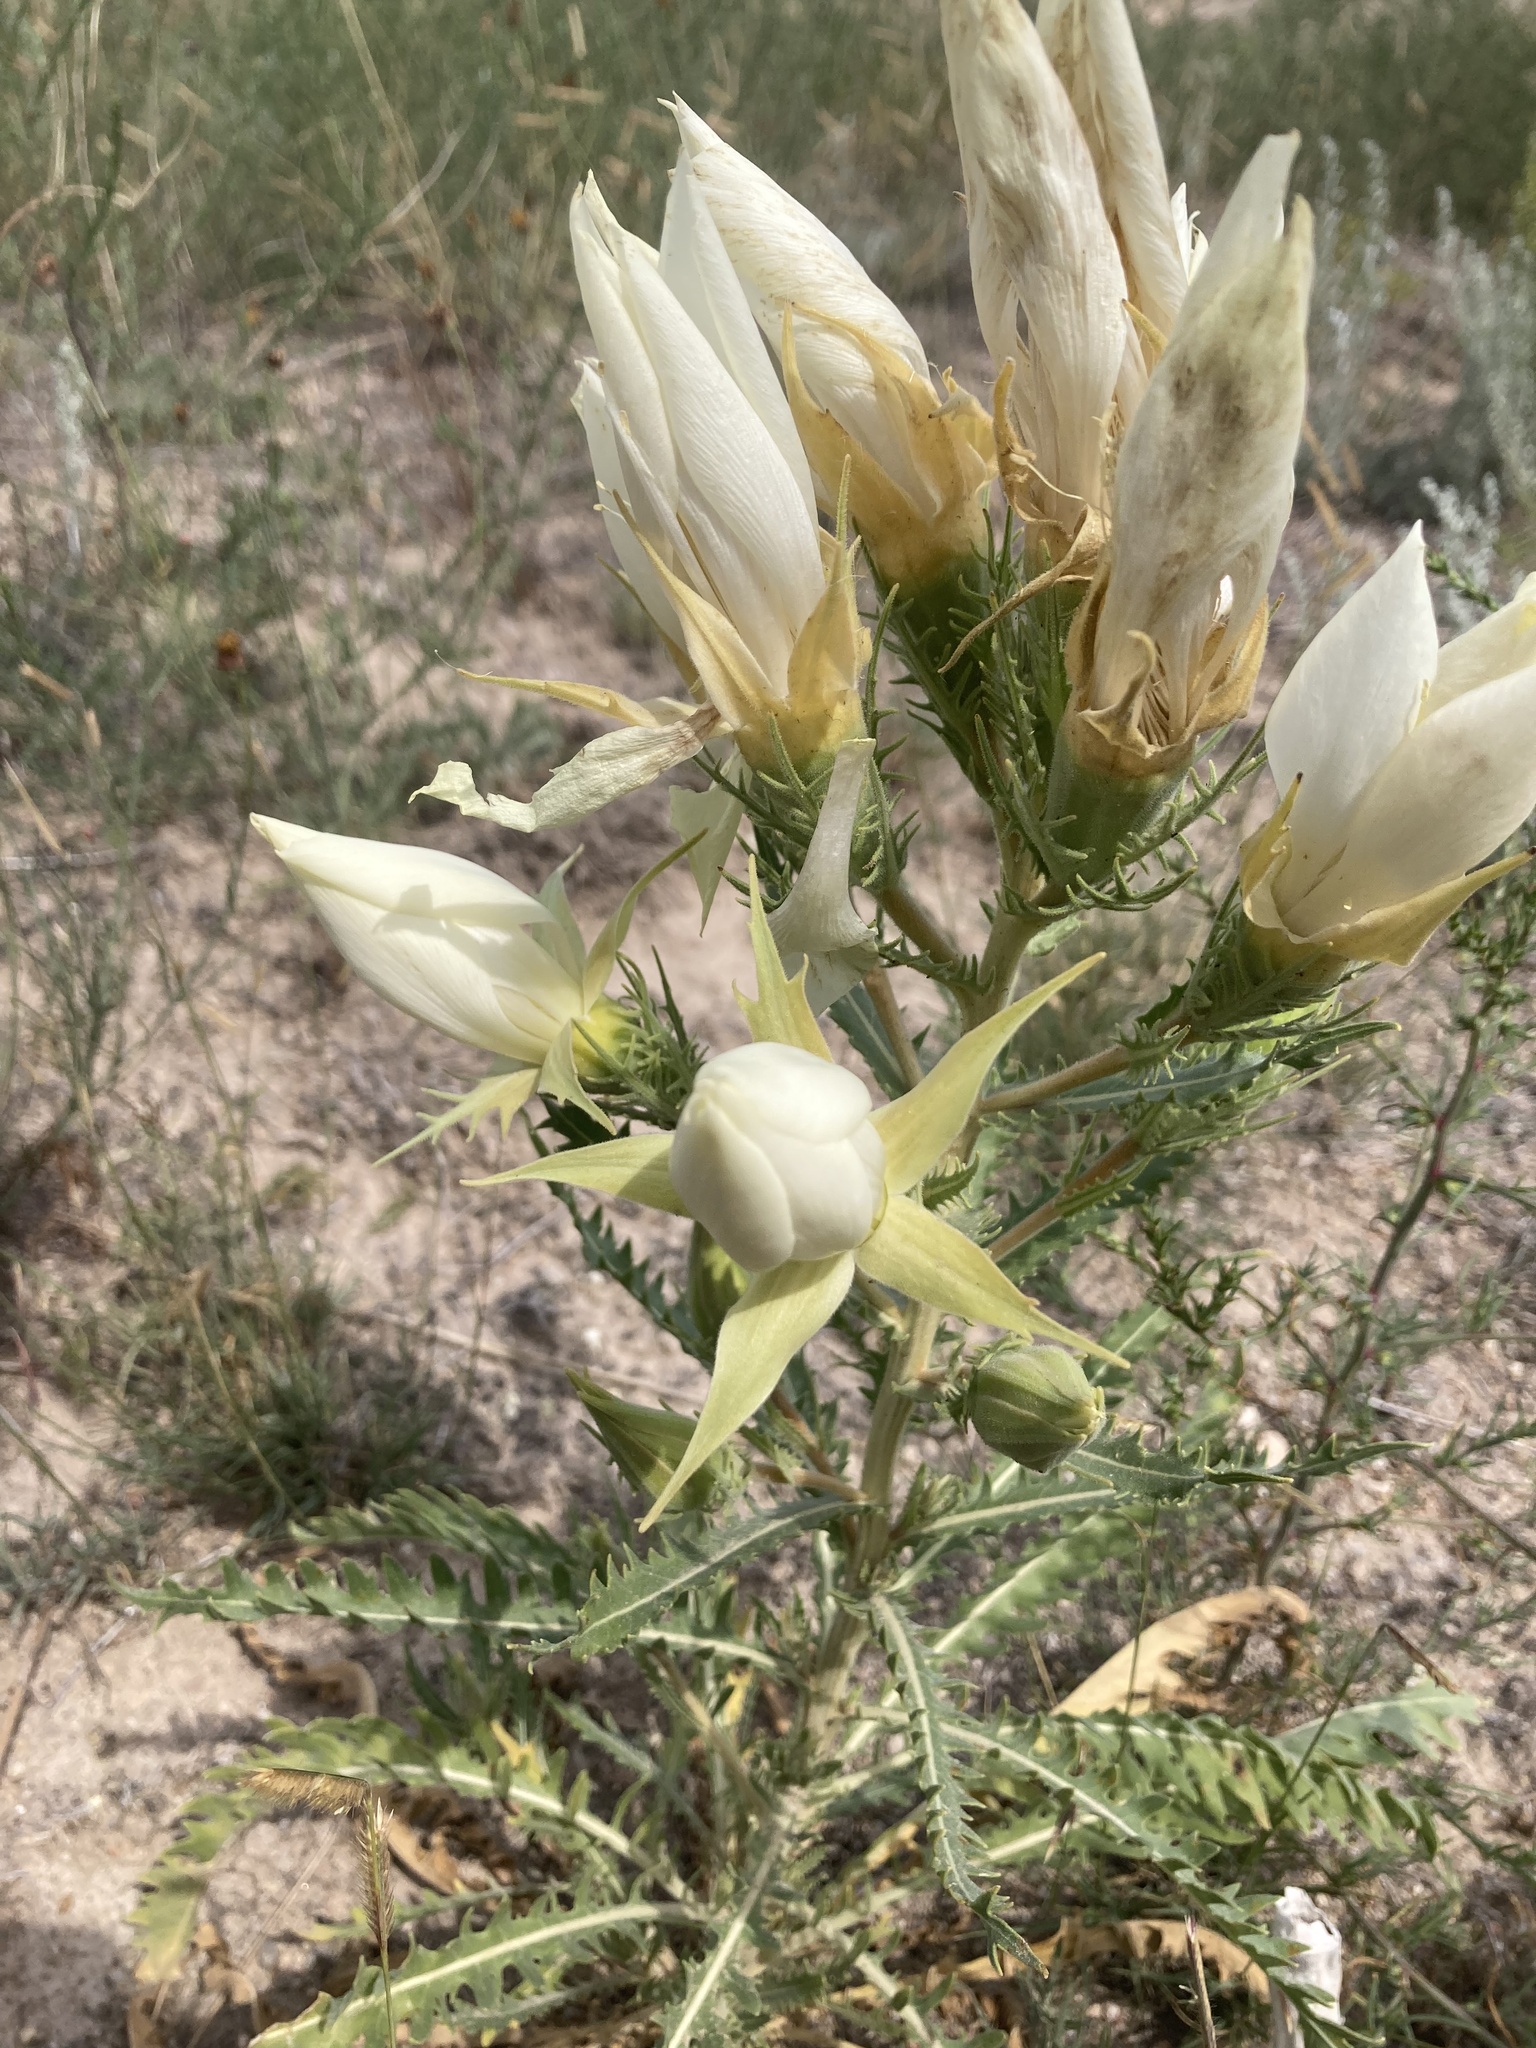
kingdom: Plantae
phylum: Tracheophyta
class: Magnoliopsida
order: Cornales
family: Loasaceae
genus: Mentzelia
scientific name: Mentzelia decapetala
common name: Gumbo-lily
